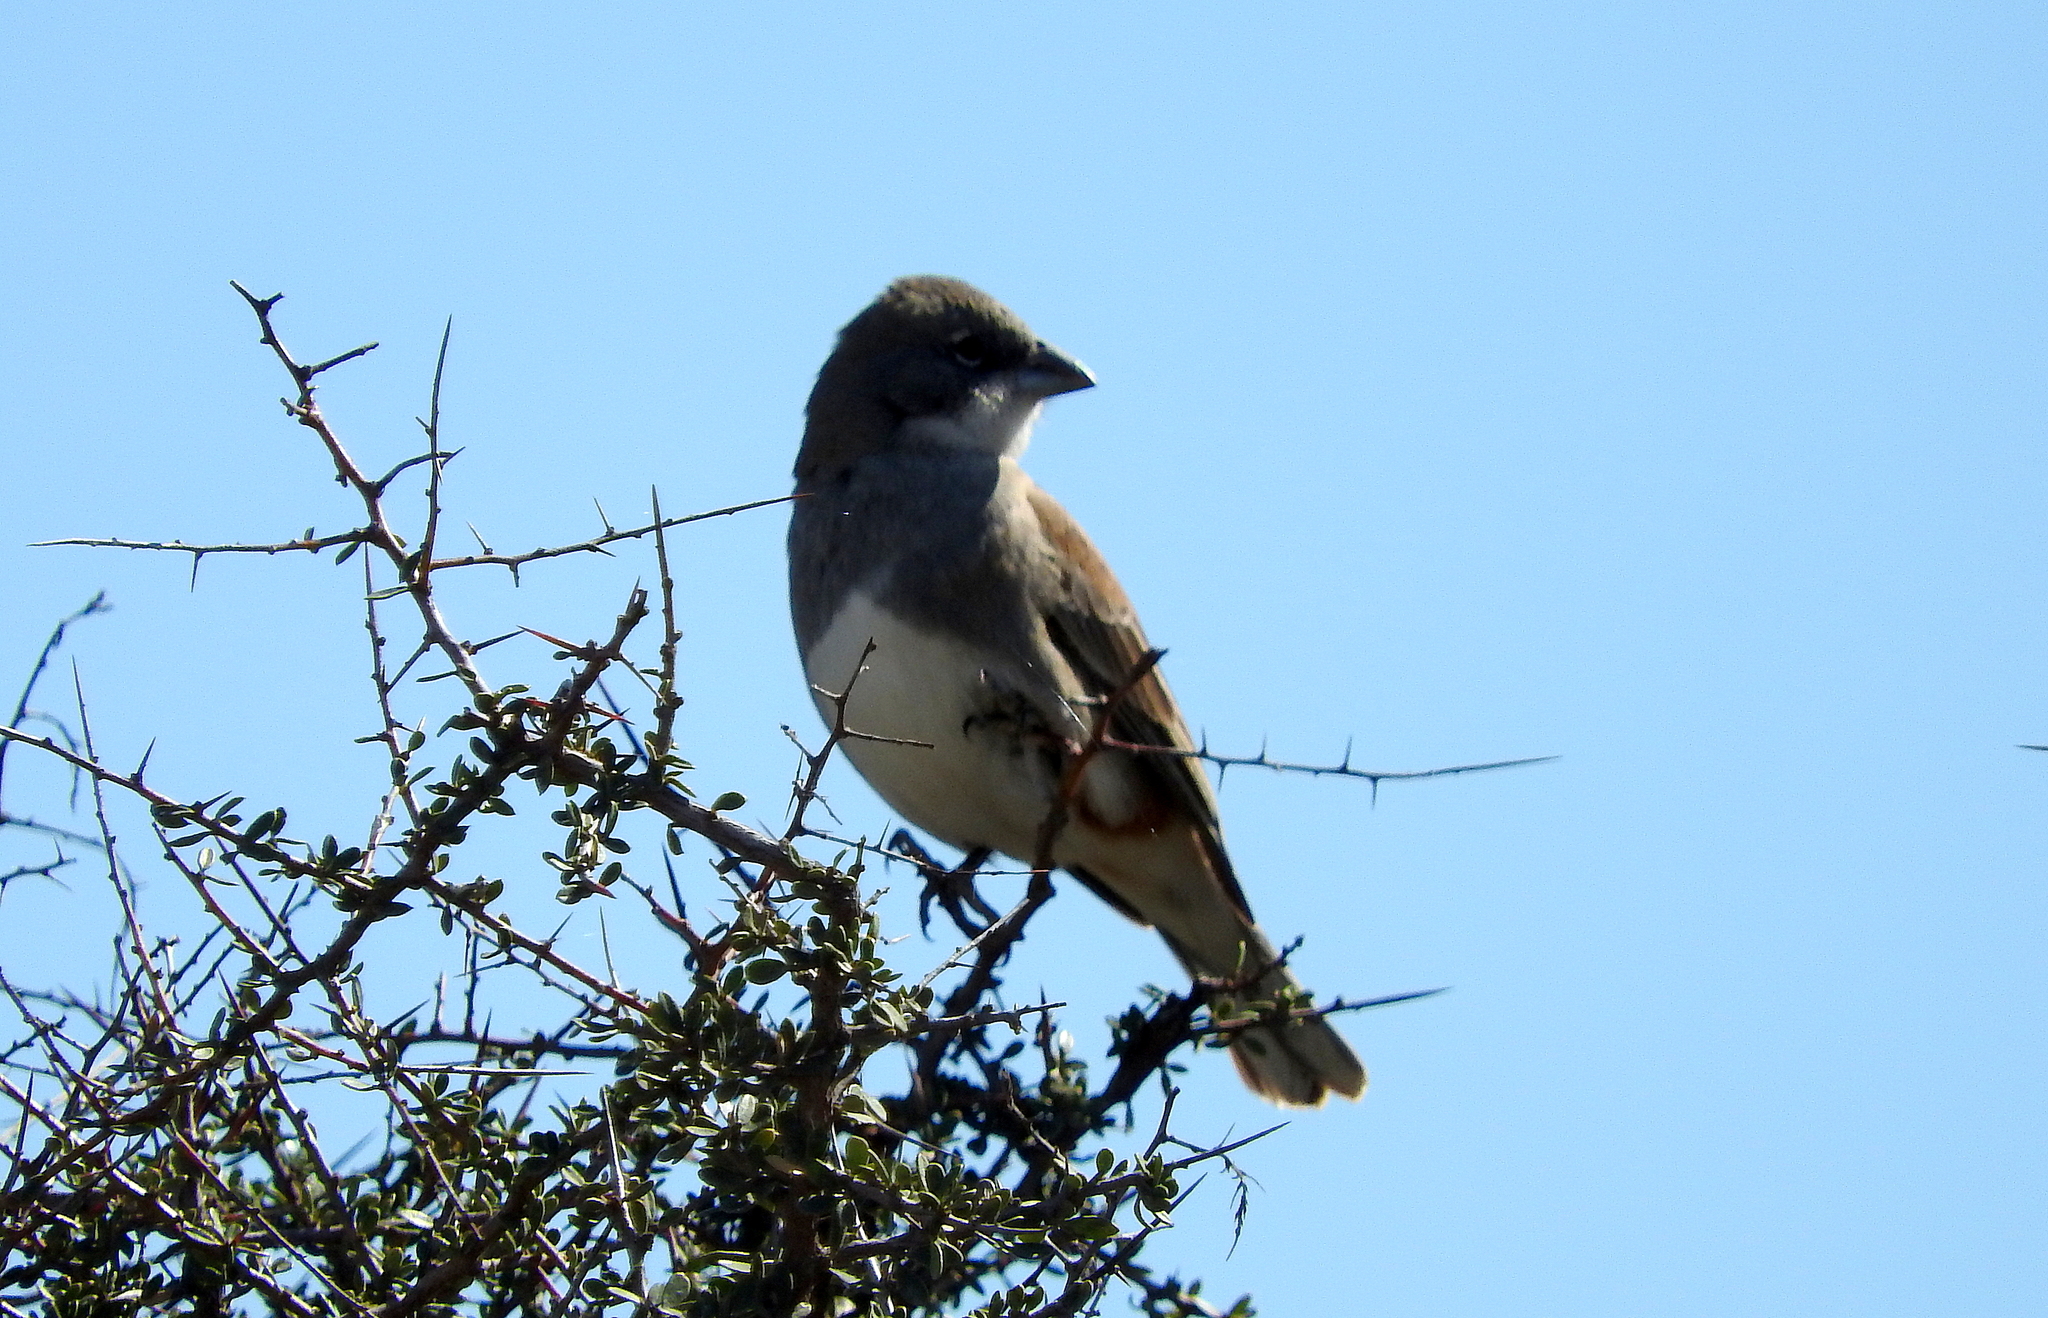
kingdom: Animalia
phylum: Chordata
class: Aves
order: Passeriformes
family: Thraupidae
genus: Diuca
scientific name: Diuca diuca
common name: Common diuca finch
